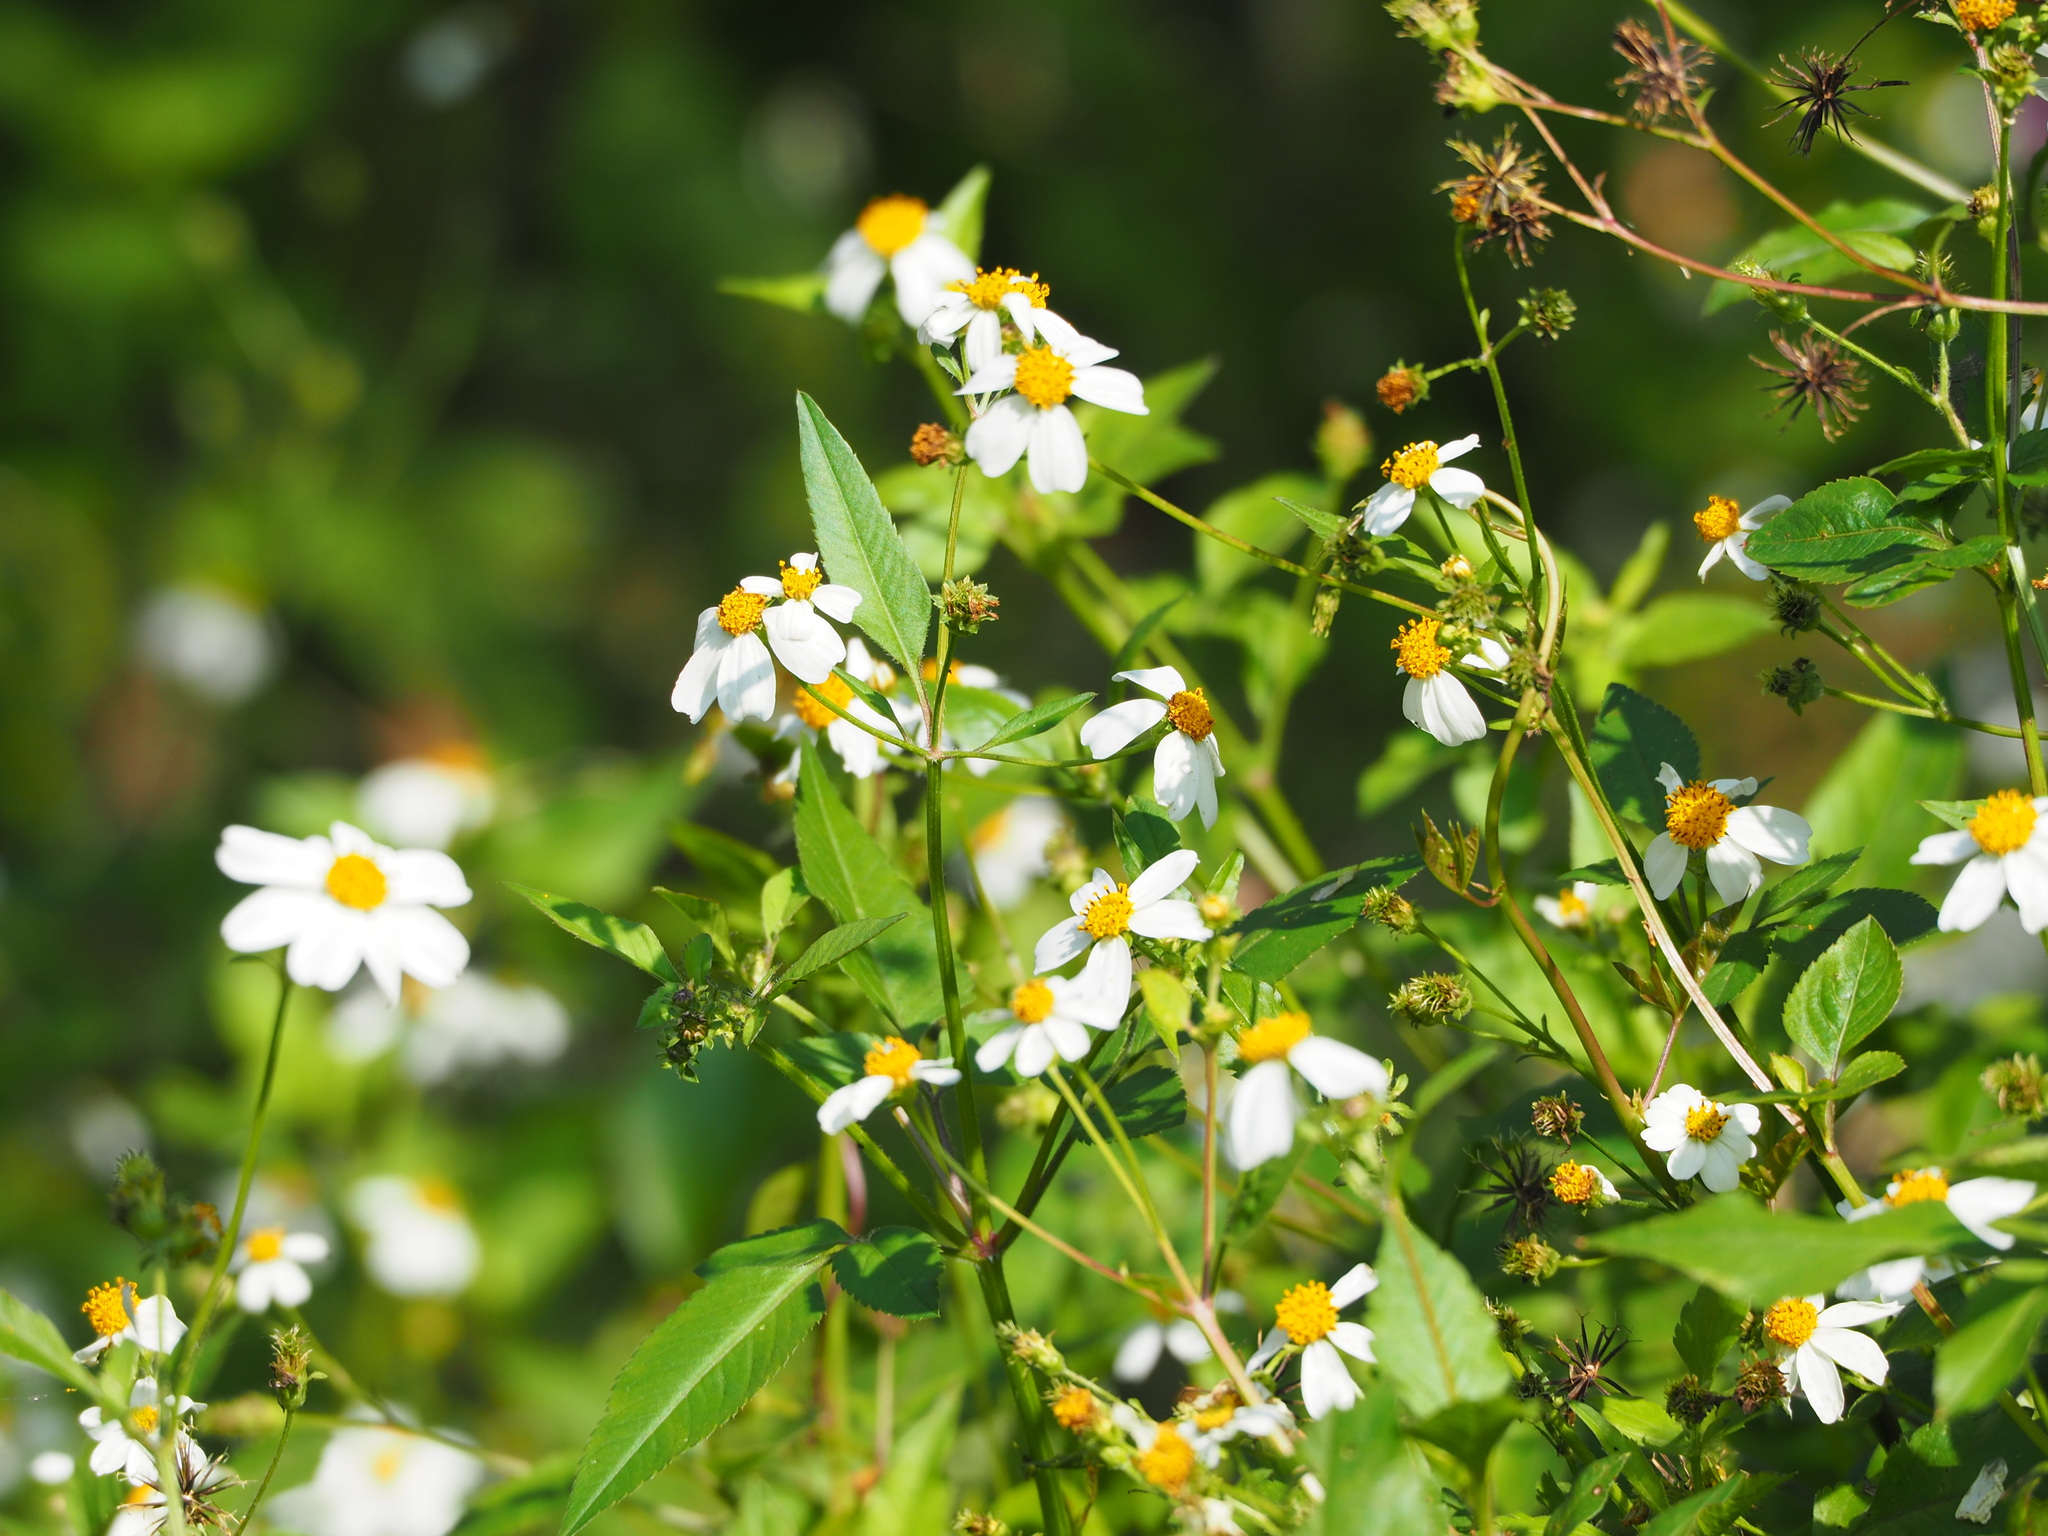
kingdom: Plantae
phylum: Tracheophyta
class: Magnoliopsida
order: Asterales
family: Asteraceae
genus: Bidens
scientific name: Bidens alba
